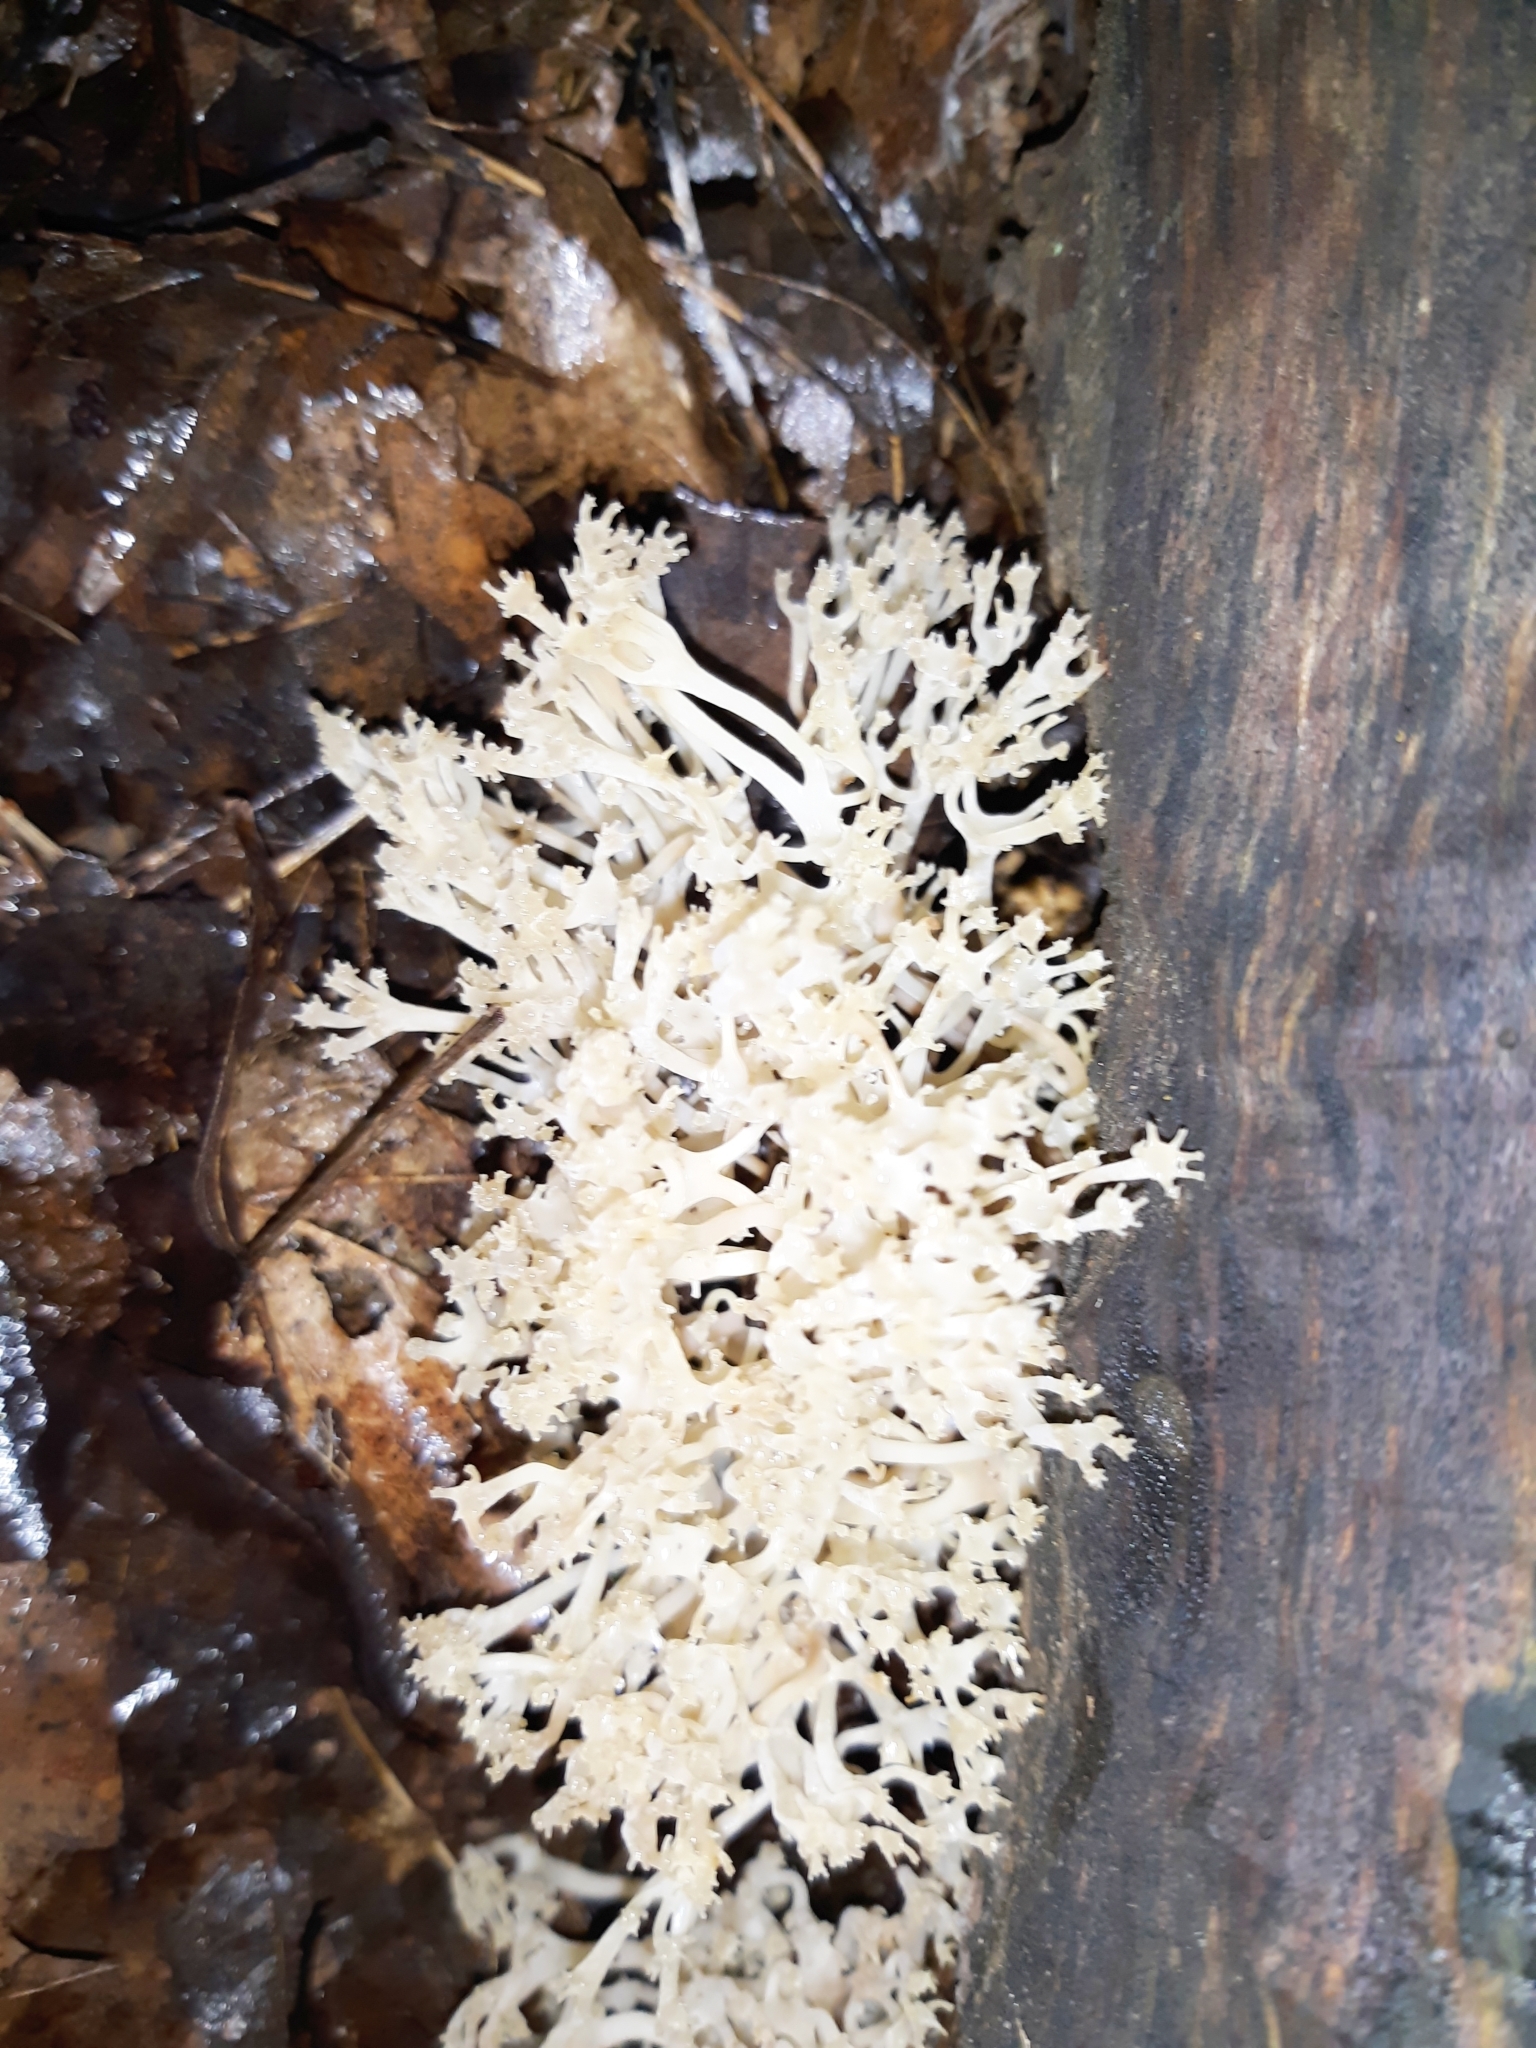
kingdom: Fungi
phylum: Basidiomycota
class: Agaricomycetes
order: Russulales
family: Auriscalpiaceae
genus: Artomyces
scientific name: Artomyces pyxidatus
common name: Crown-tipped coral fungus
